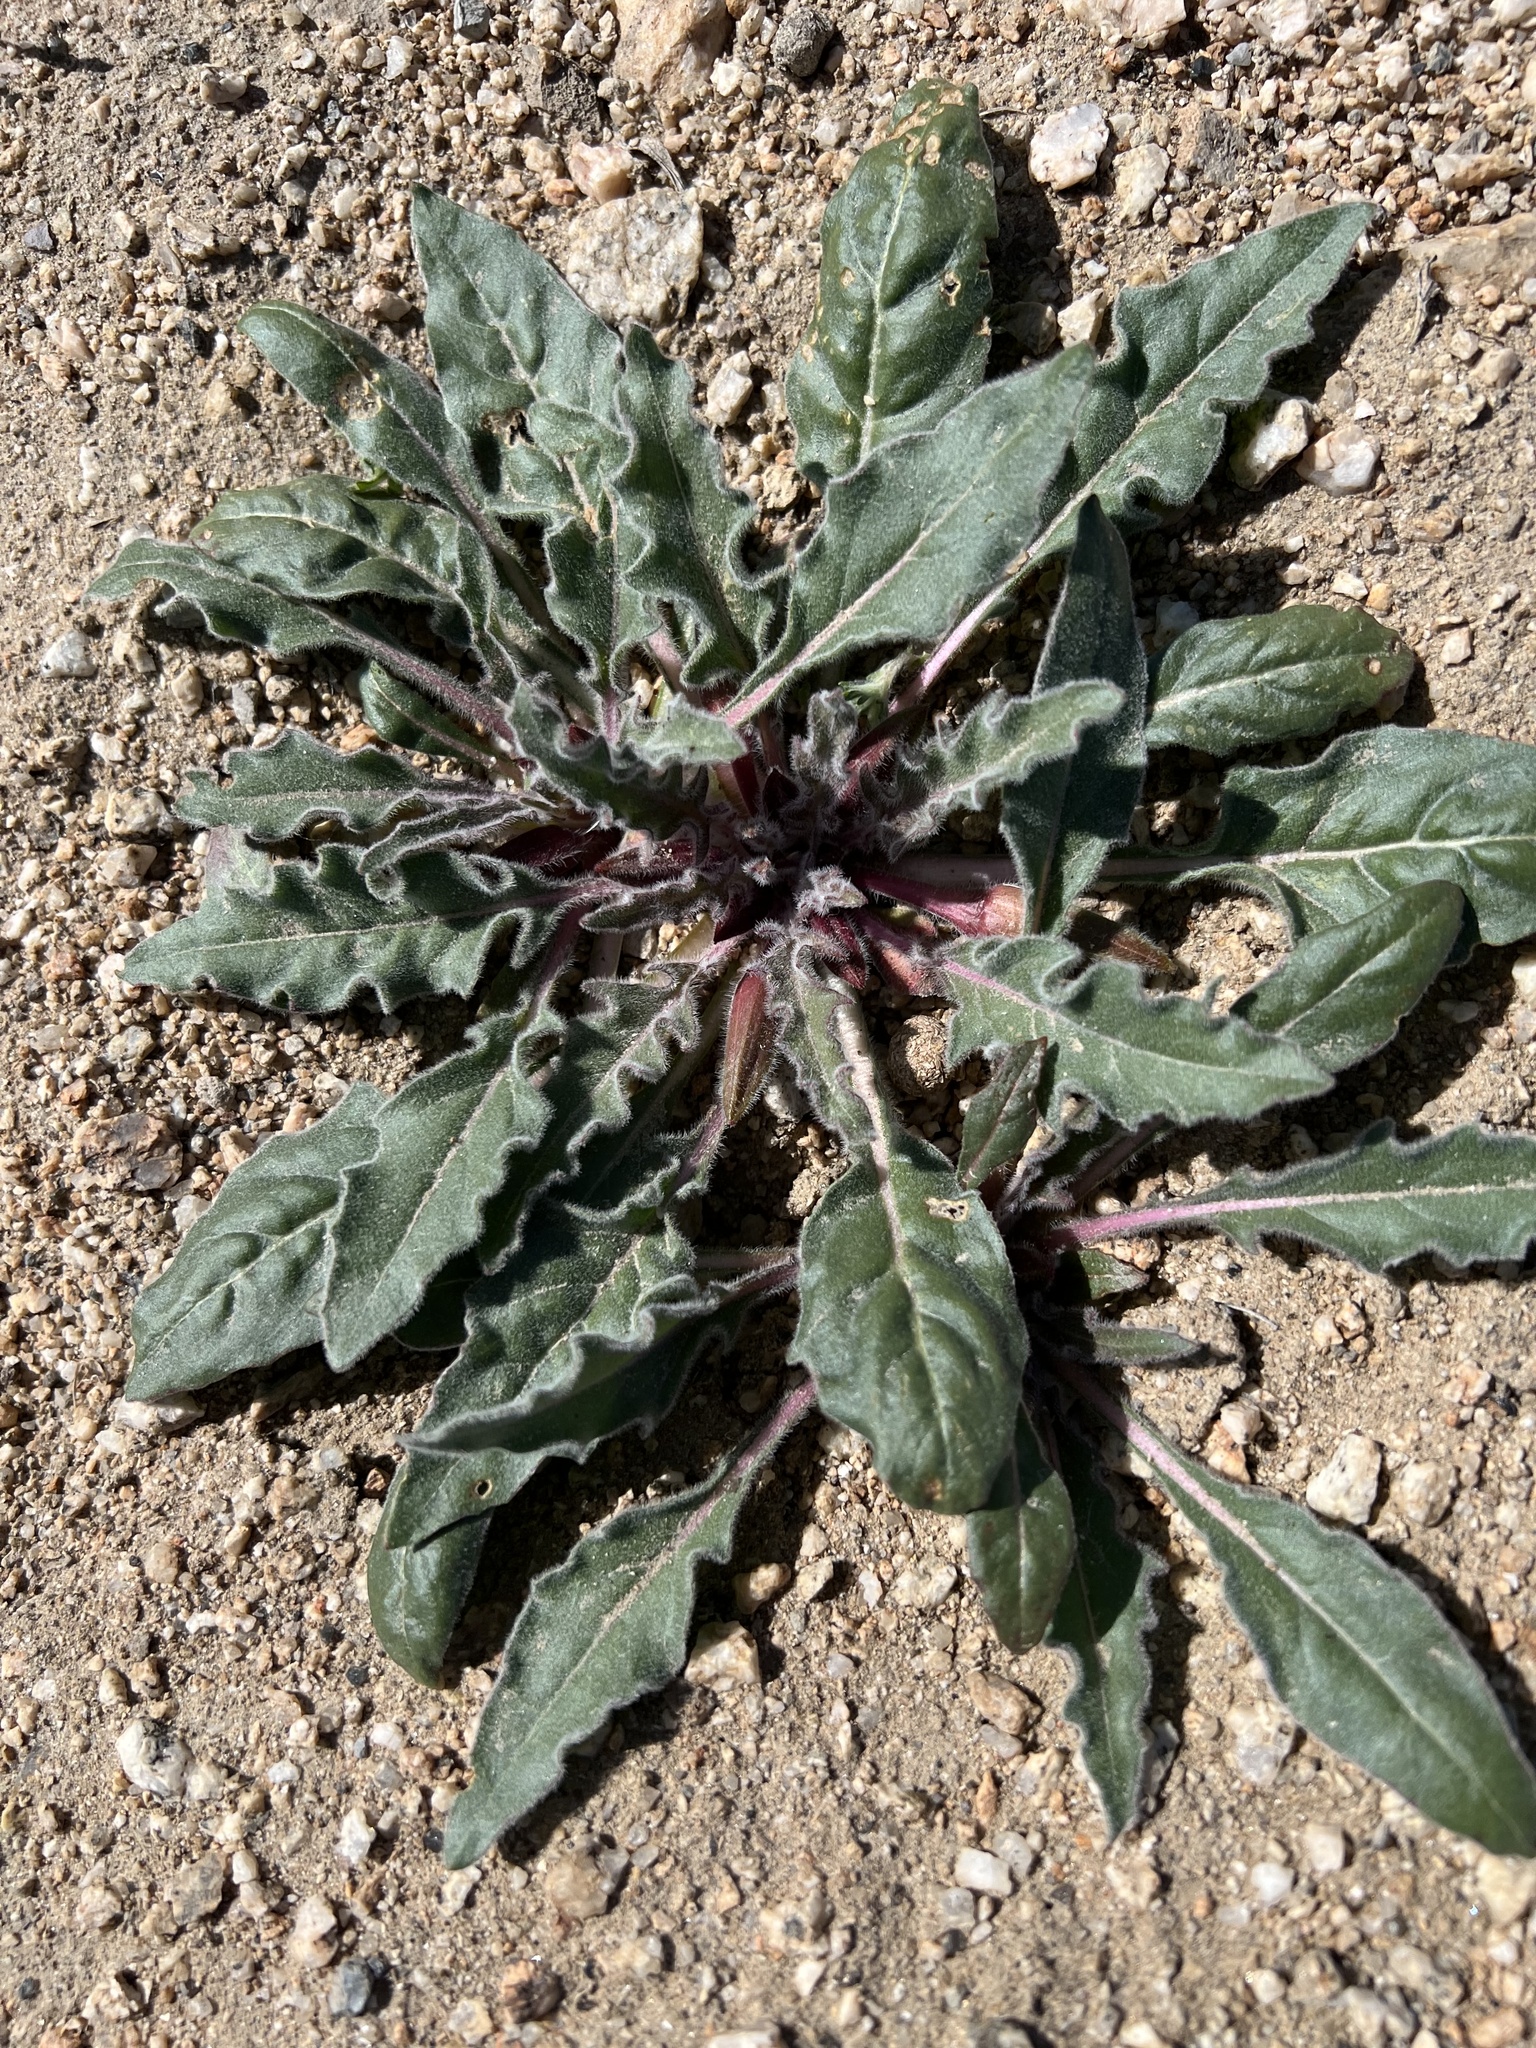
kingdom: Plantae
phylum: Tracheophyta
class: Magnoliopsida
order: Myrtales
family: Onagraceae
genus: Oenothera
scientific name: Oenothera cespitosa
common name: Tufted evening-primrose
